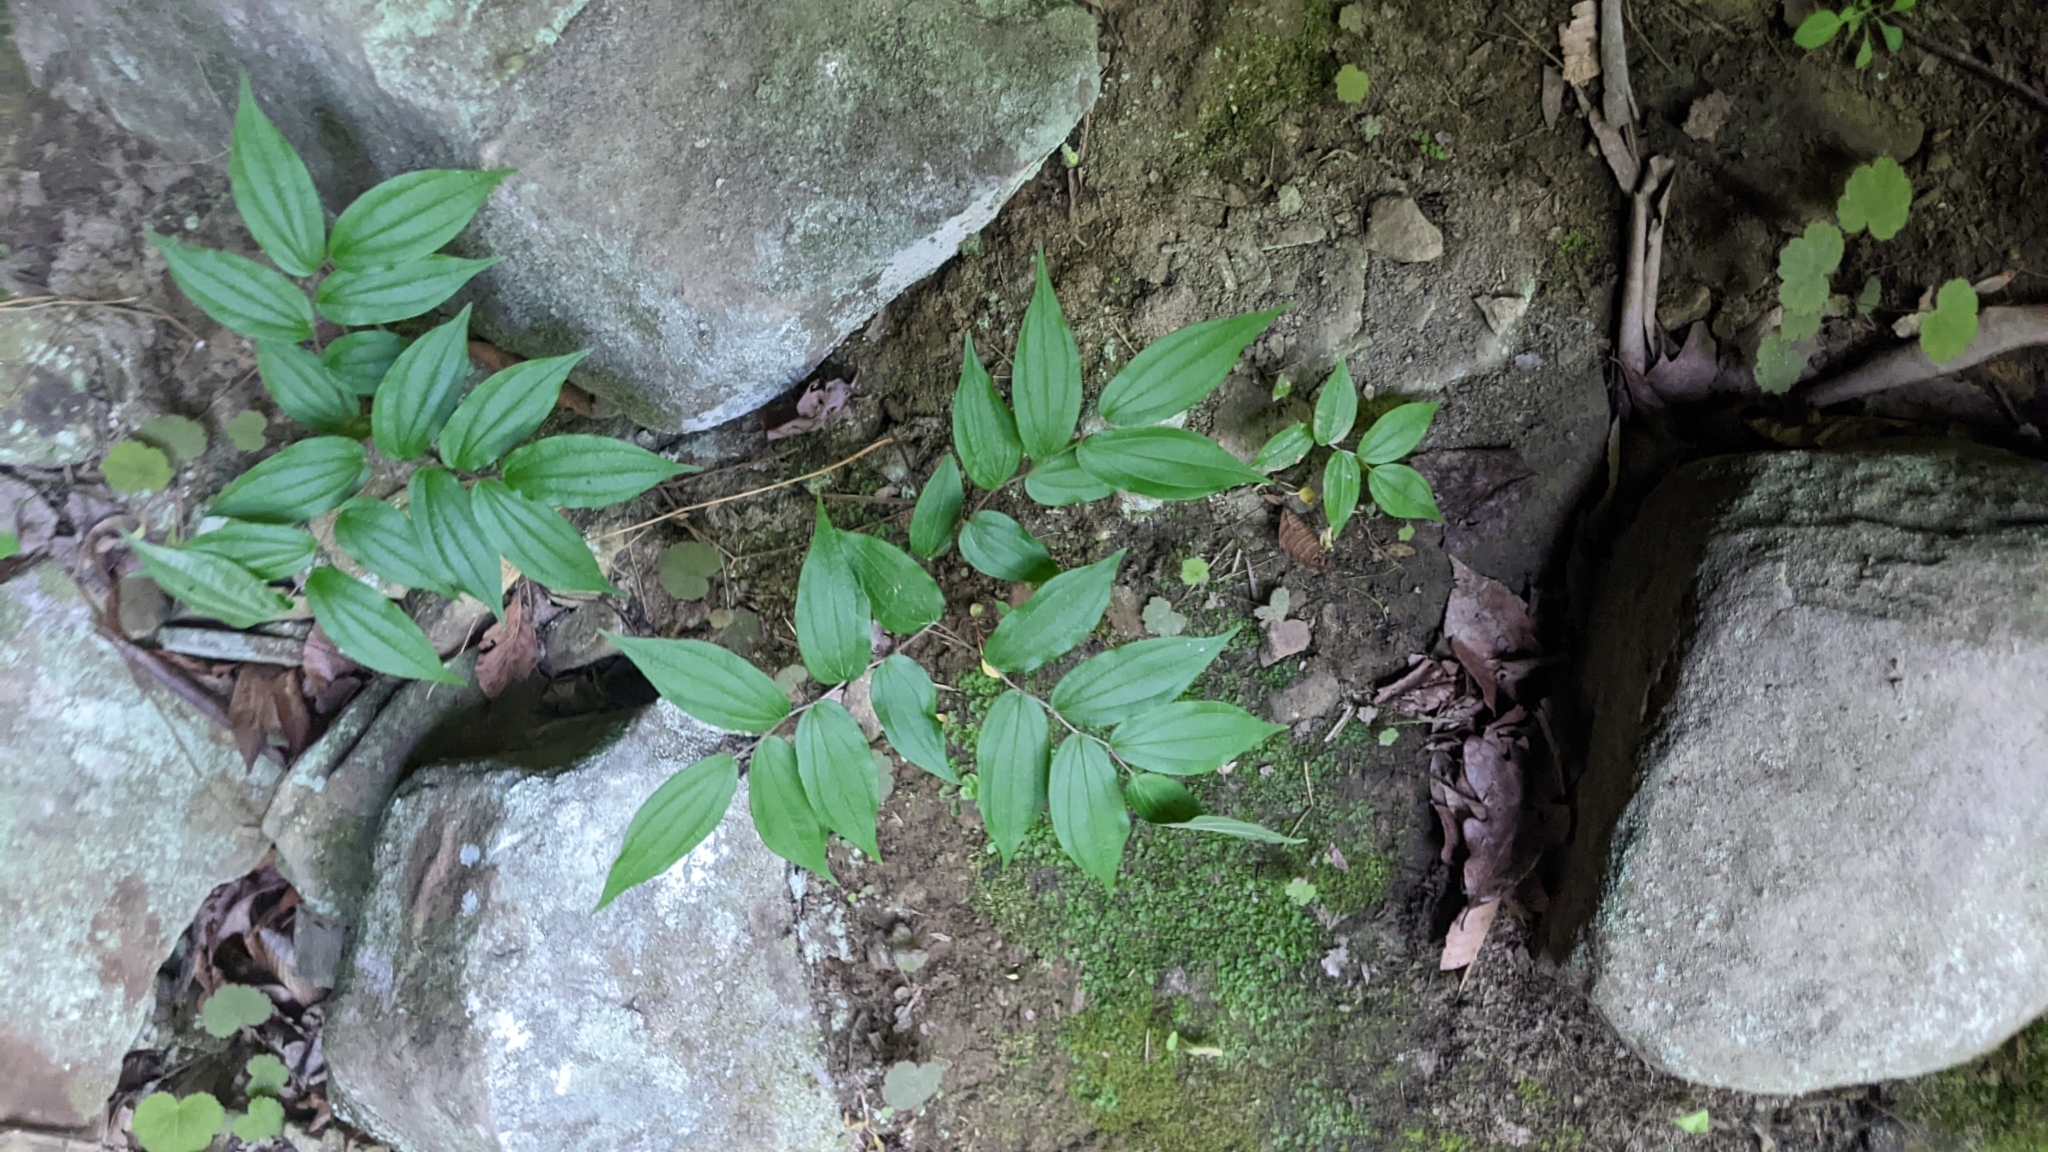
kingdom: Plantae
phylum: Tracheophyta
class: Liliopsida
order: Liliales
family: Liliaceae
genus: Prosartes
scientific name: Prosartes
